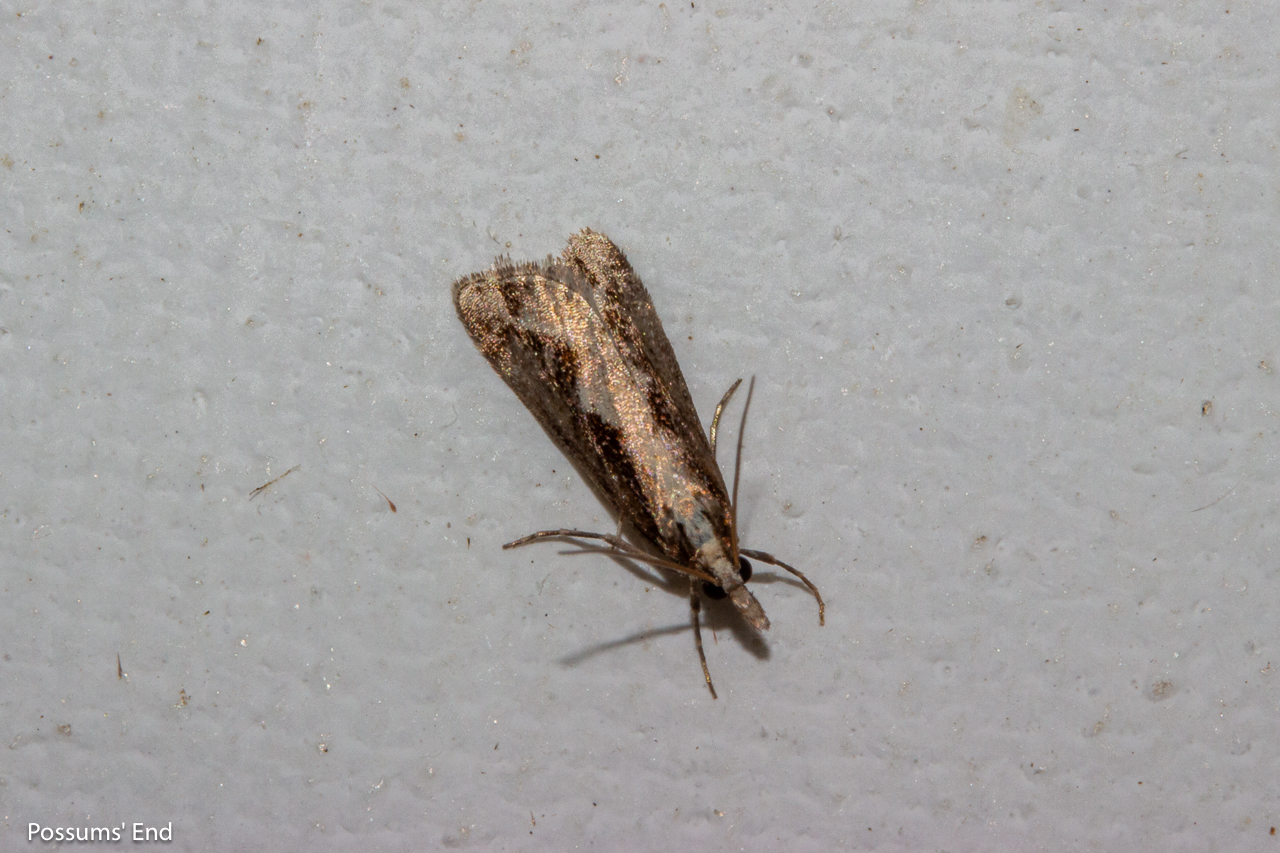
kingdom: Animalia
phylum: Arthropoda
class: Insecta
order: Lepidoptera
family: Crambidae
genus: Eudonia
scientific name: Eudonia steropaea
